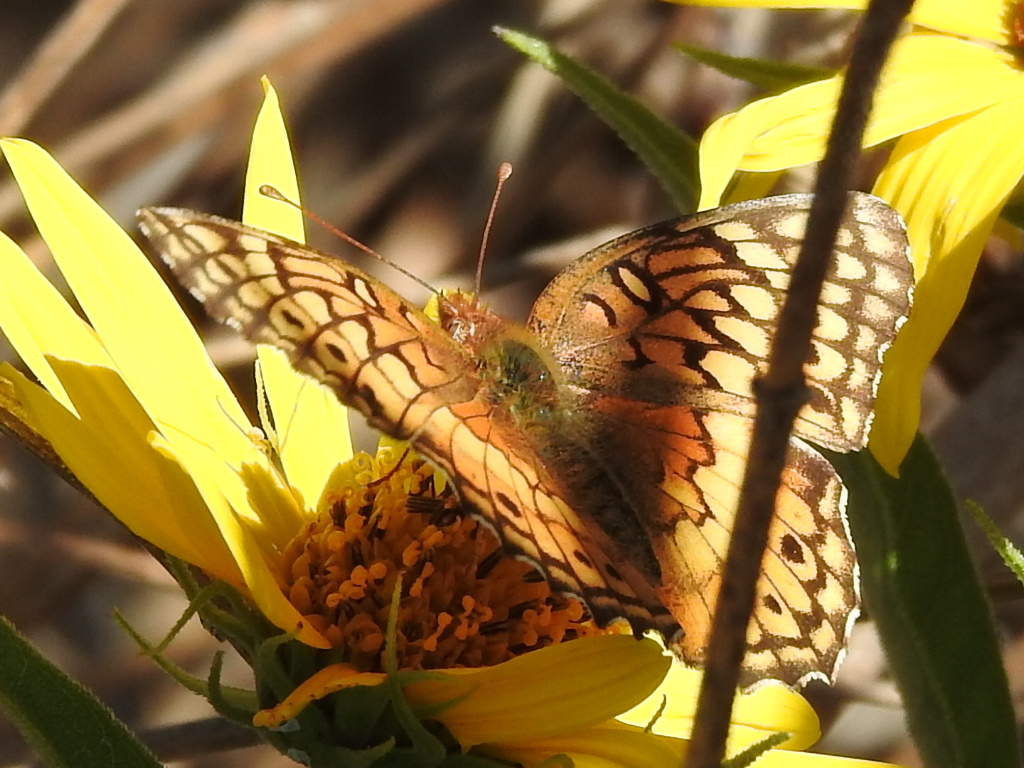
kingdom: Animalia
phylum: Arthropoda
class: Insecta
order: Lepidoptera
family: Nymphalidae
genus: Euptoieta
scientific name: Euptoieta claudia
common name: Variegated fritillary
